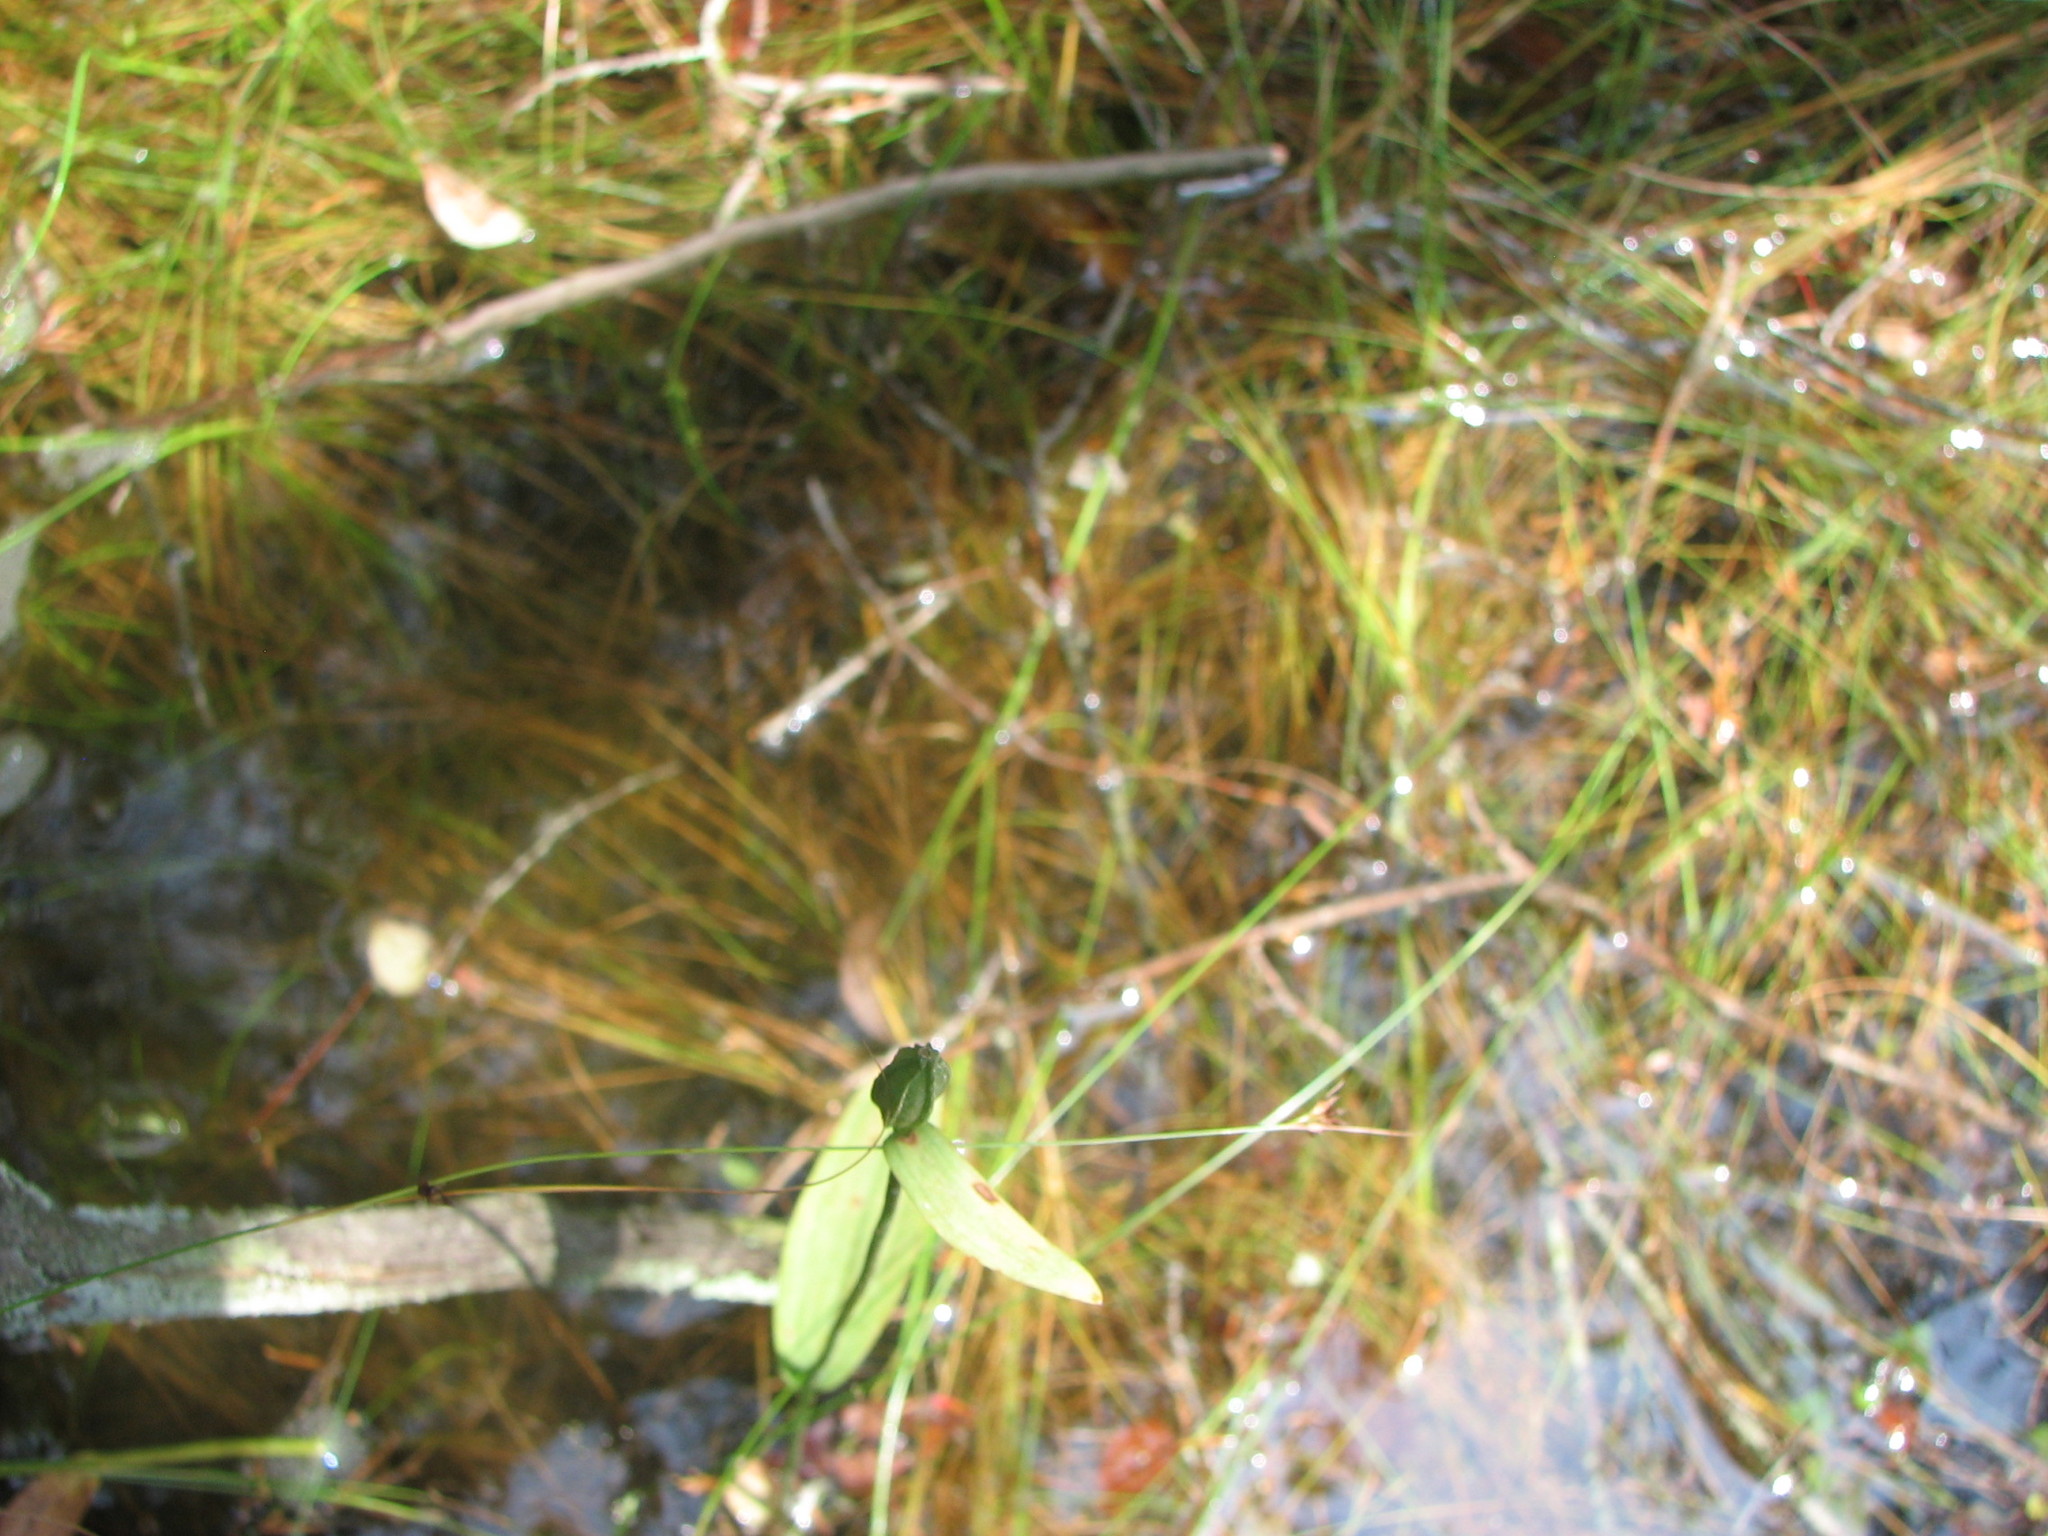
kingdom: Plantae
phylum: Tracheophyta
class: Liliopsida
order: Asparagales
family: Orchidaceae
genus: Pogonia
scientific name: Pogonia ophioglossoides
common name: Rose pogonia
